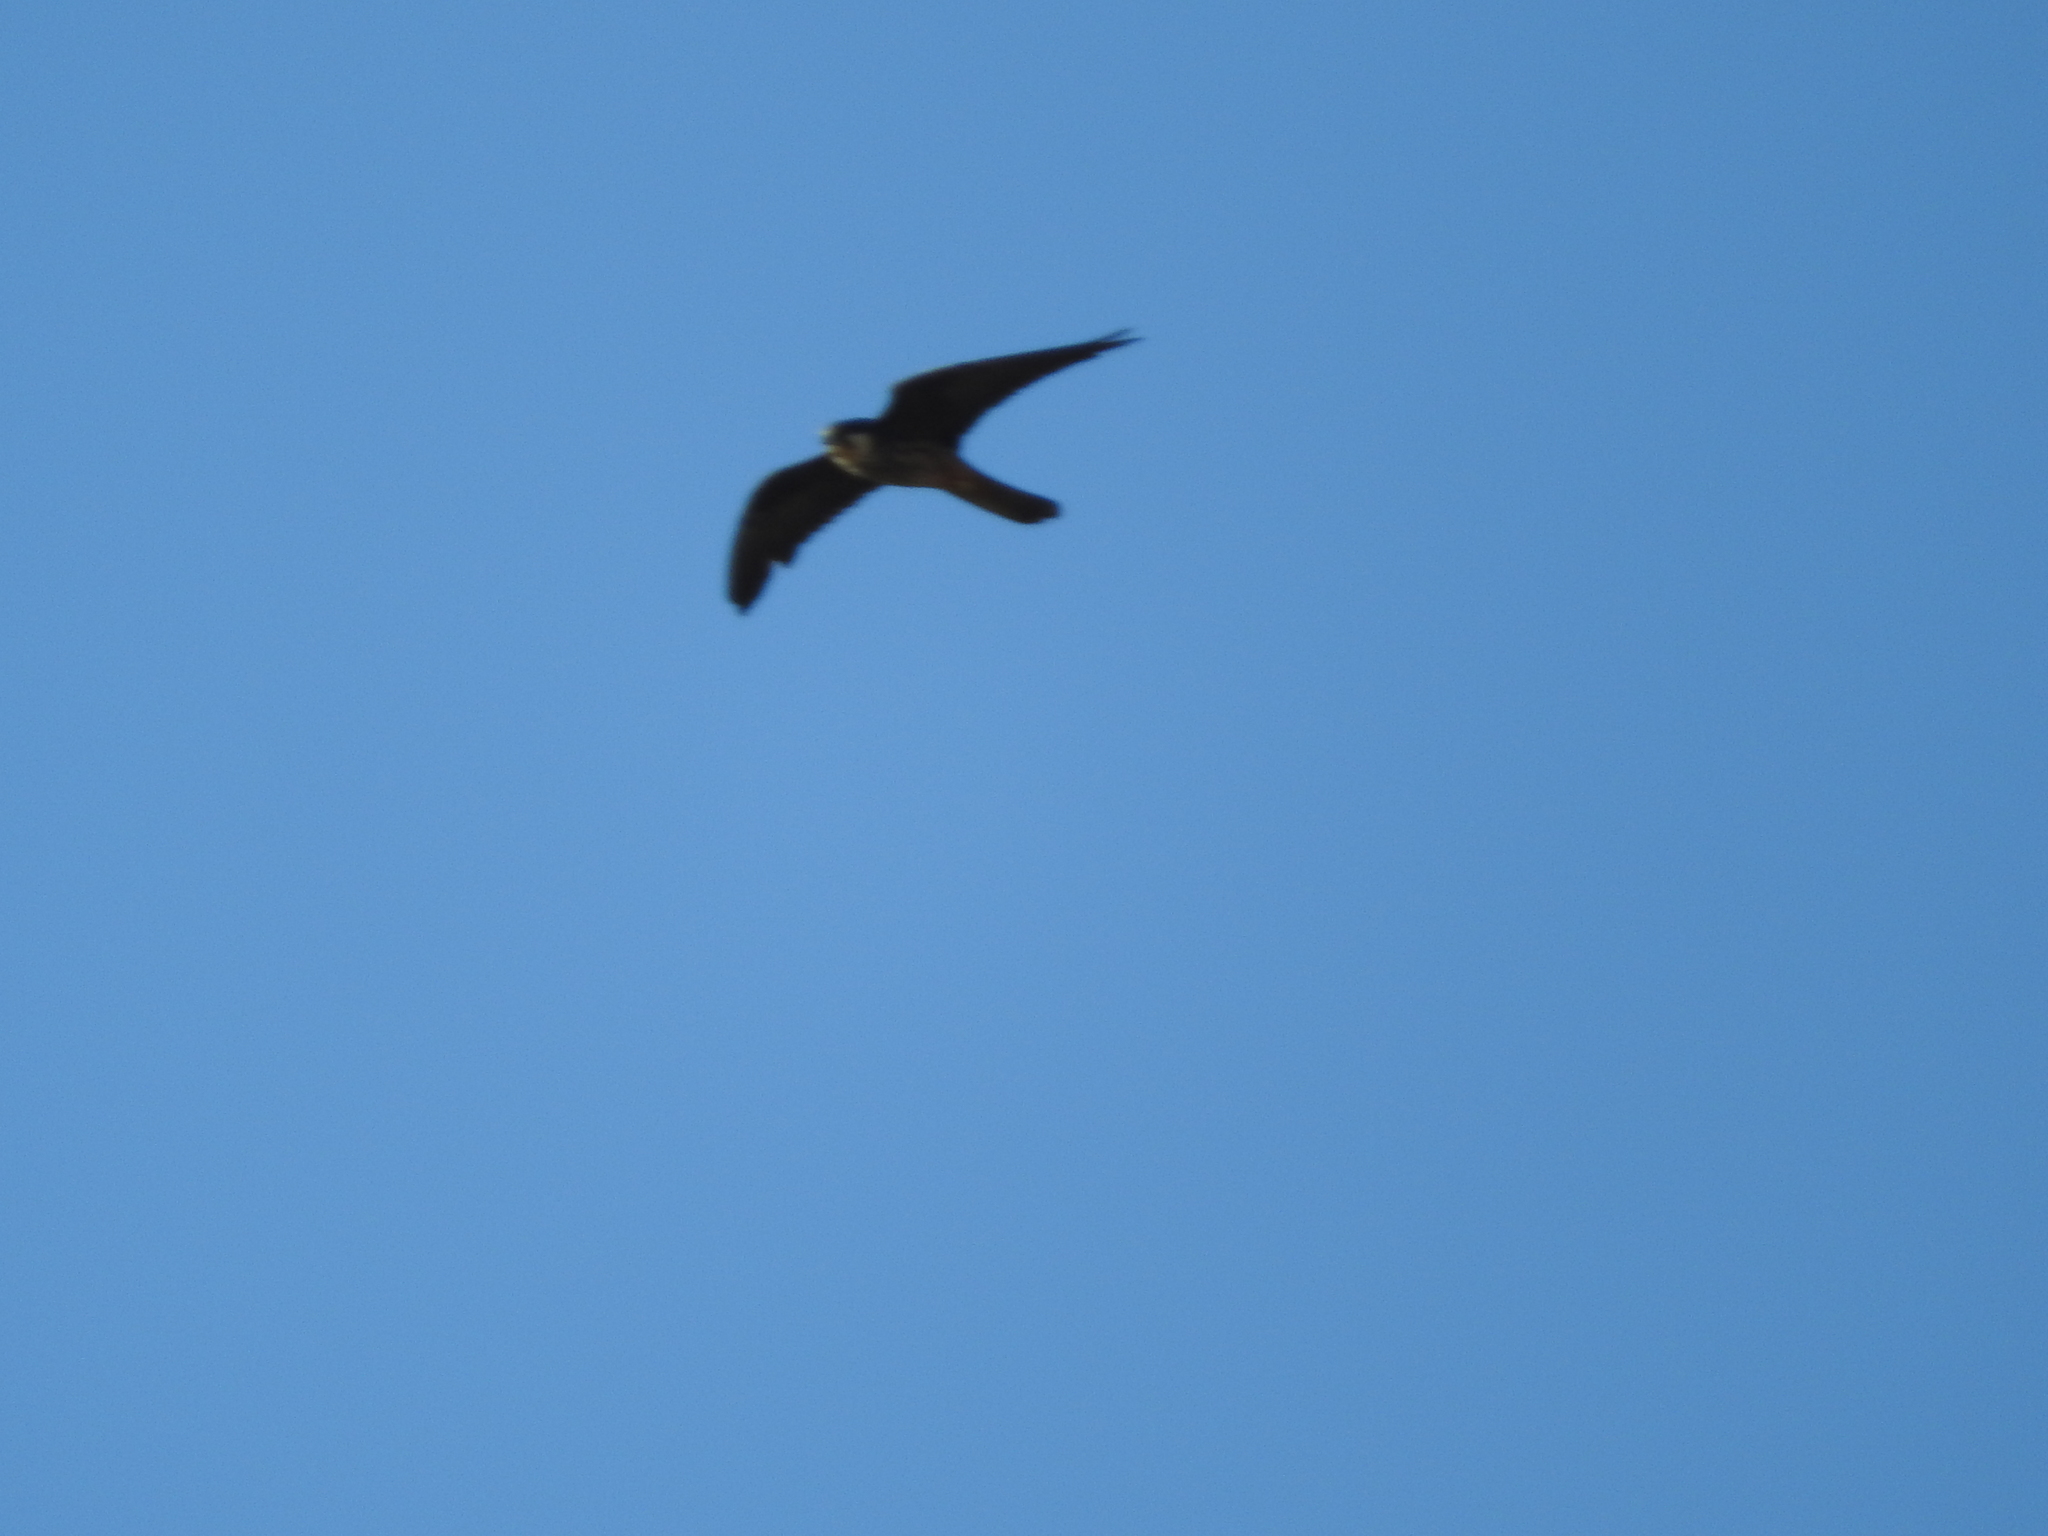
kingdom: Animalia
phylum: Chordata
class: Aves
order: Falconiformes
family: Falconidae
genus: Falco
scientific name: Falco eleonorae
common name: Eleonora's falcon
